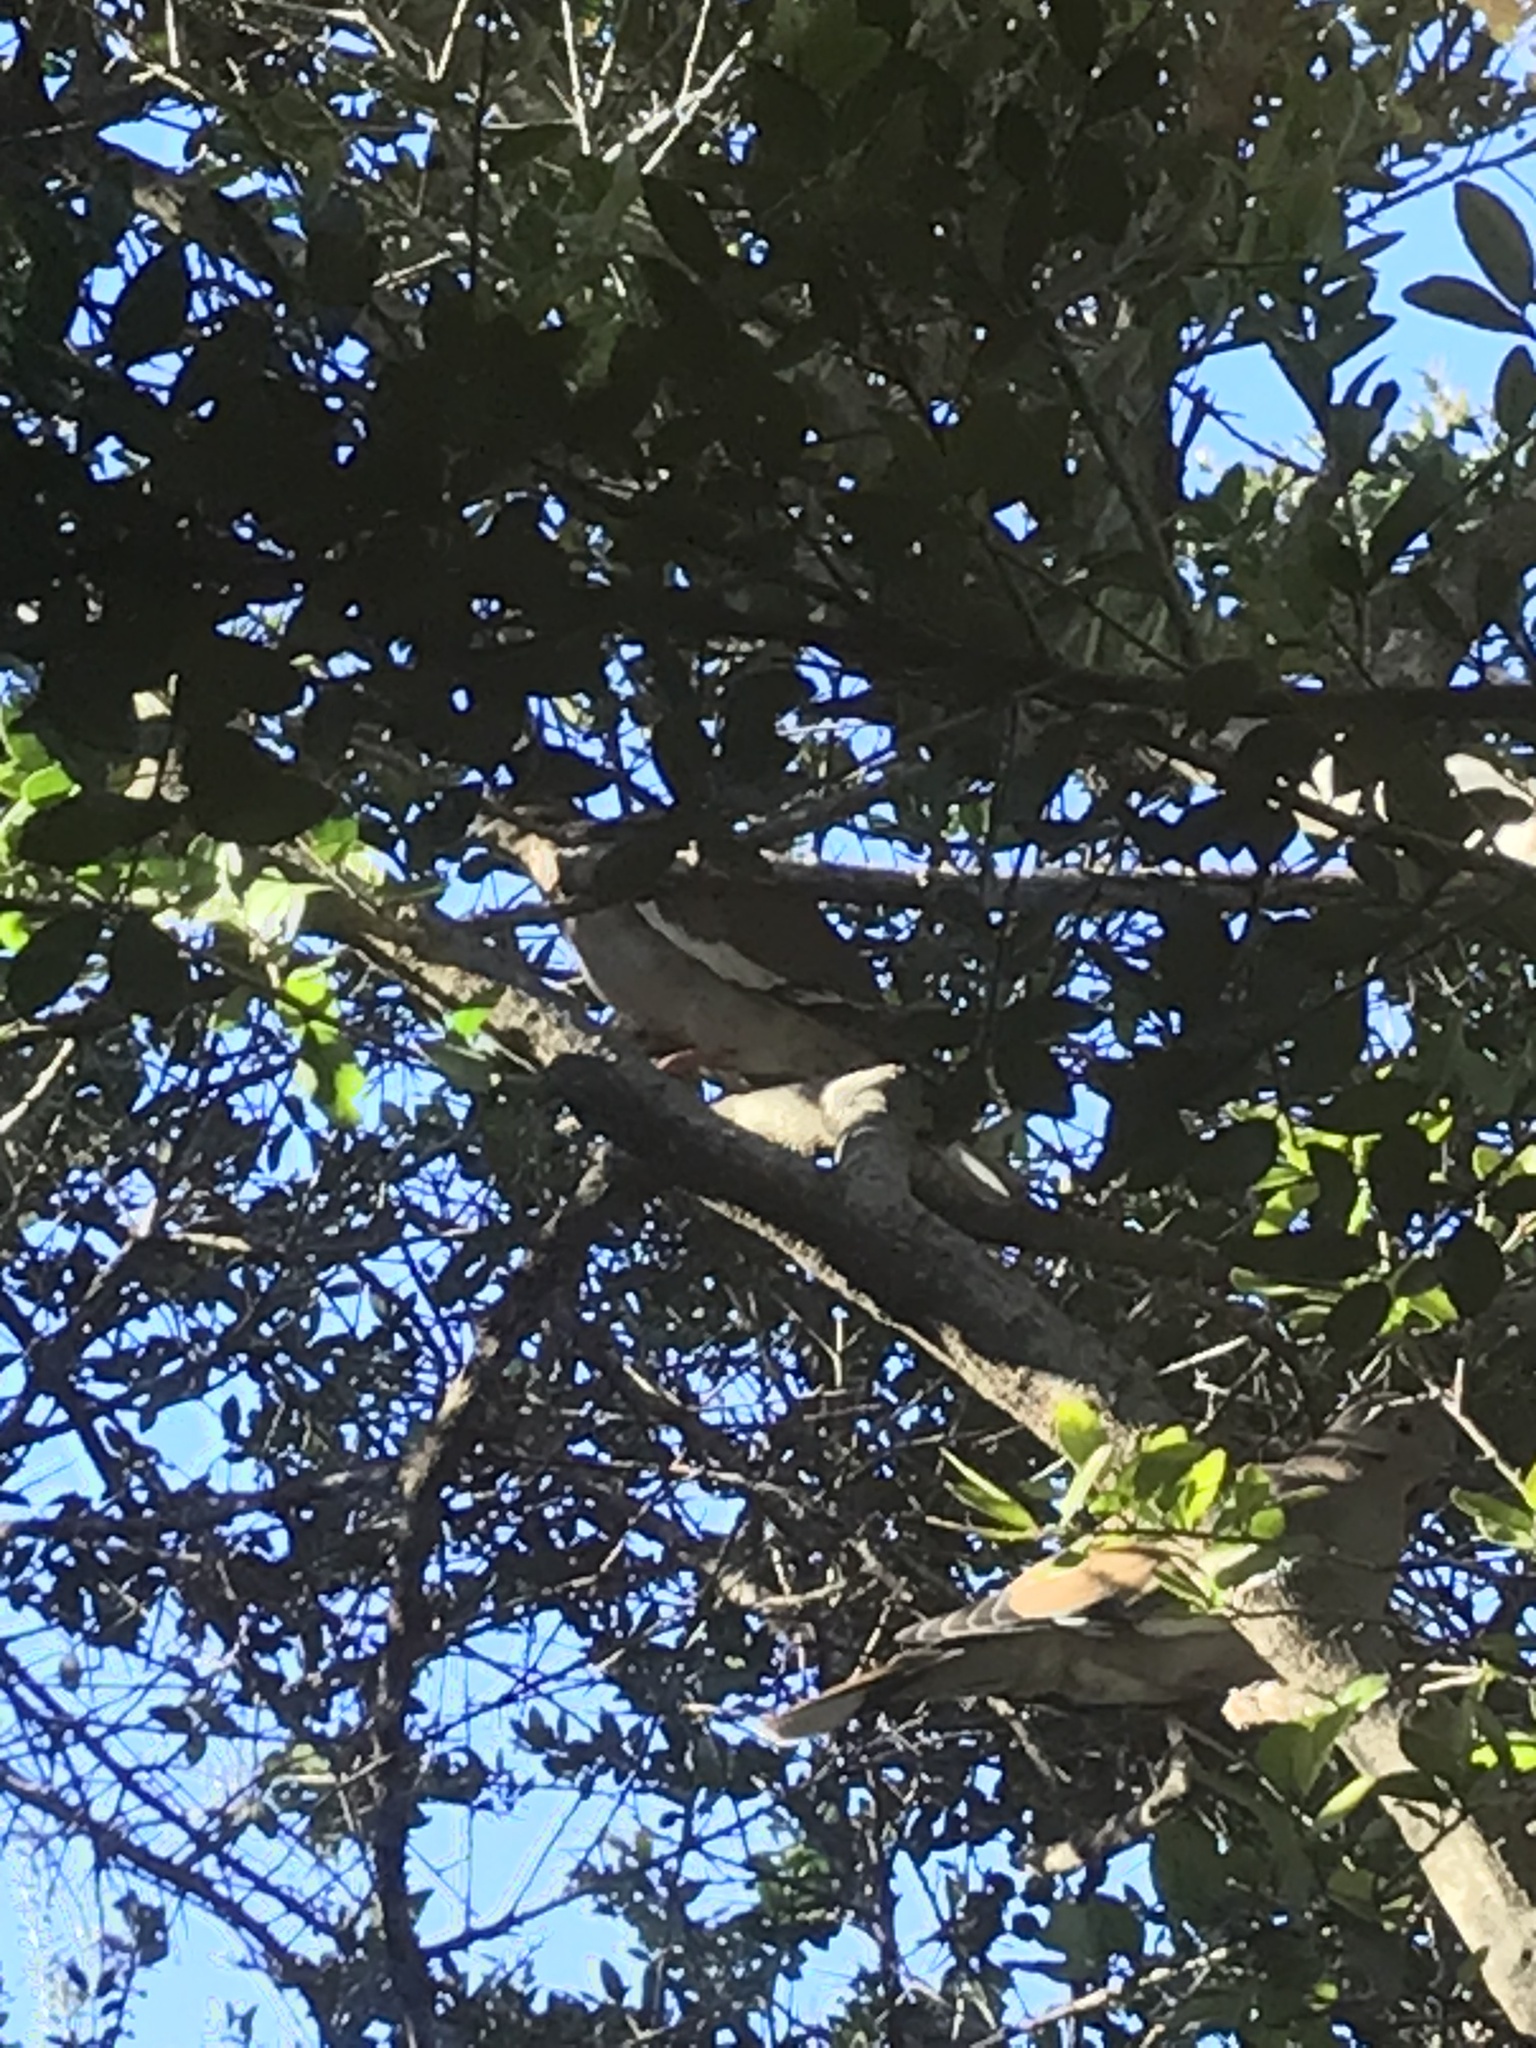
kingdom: Animalia
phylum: Chordata
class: Aves
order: Columbiformes
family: Columbidae
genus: Zenaida
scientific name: Zenaida asiatica
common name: White-winged dove
